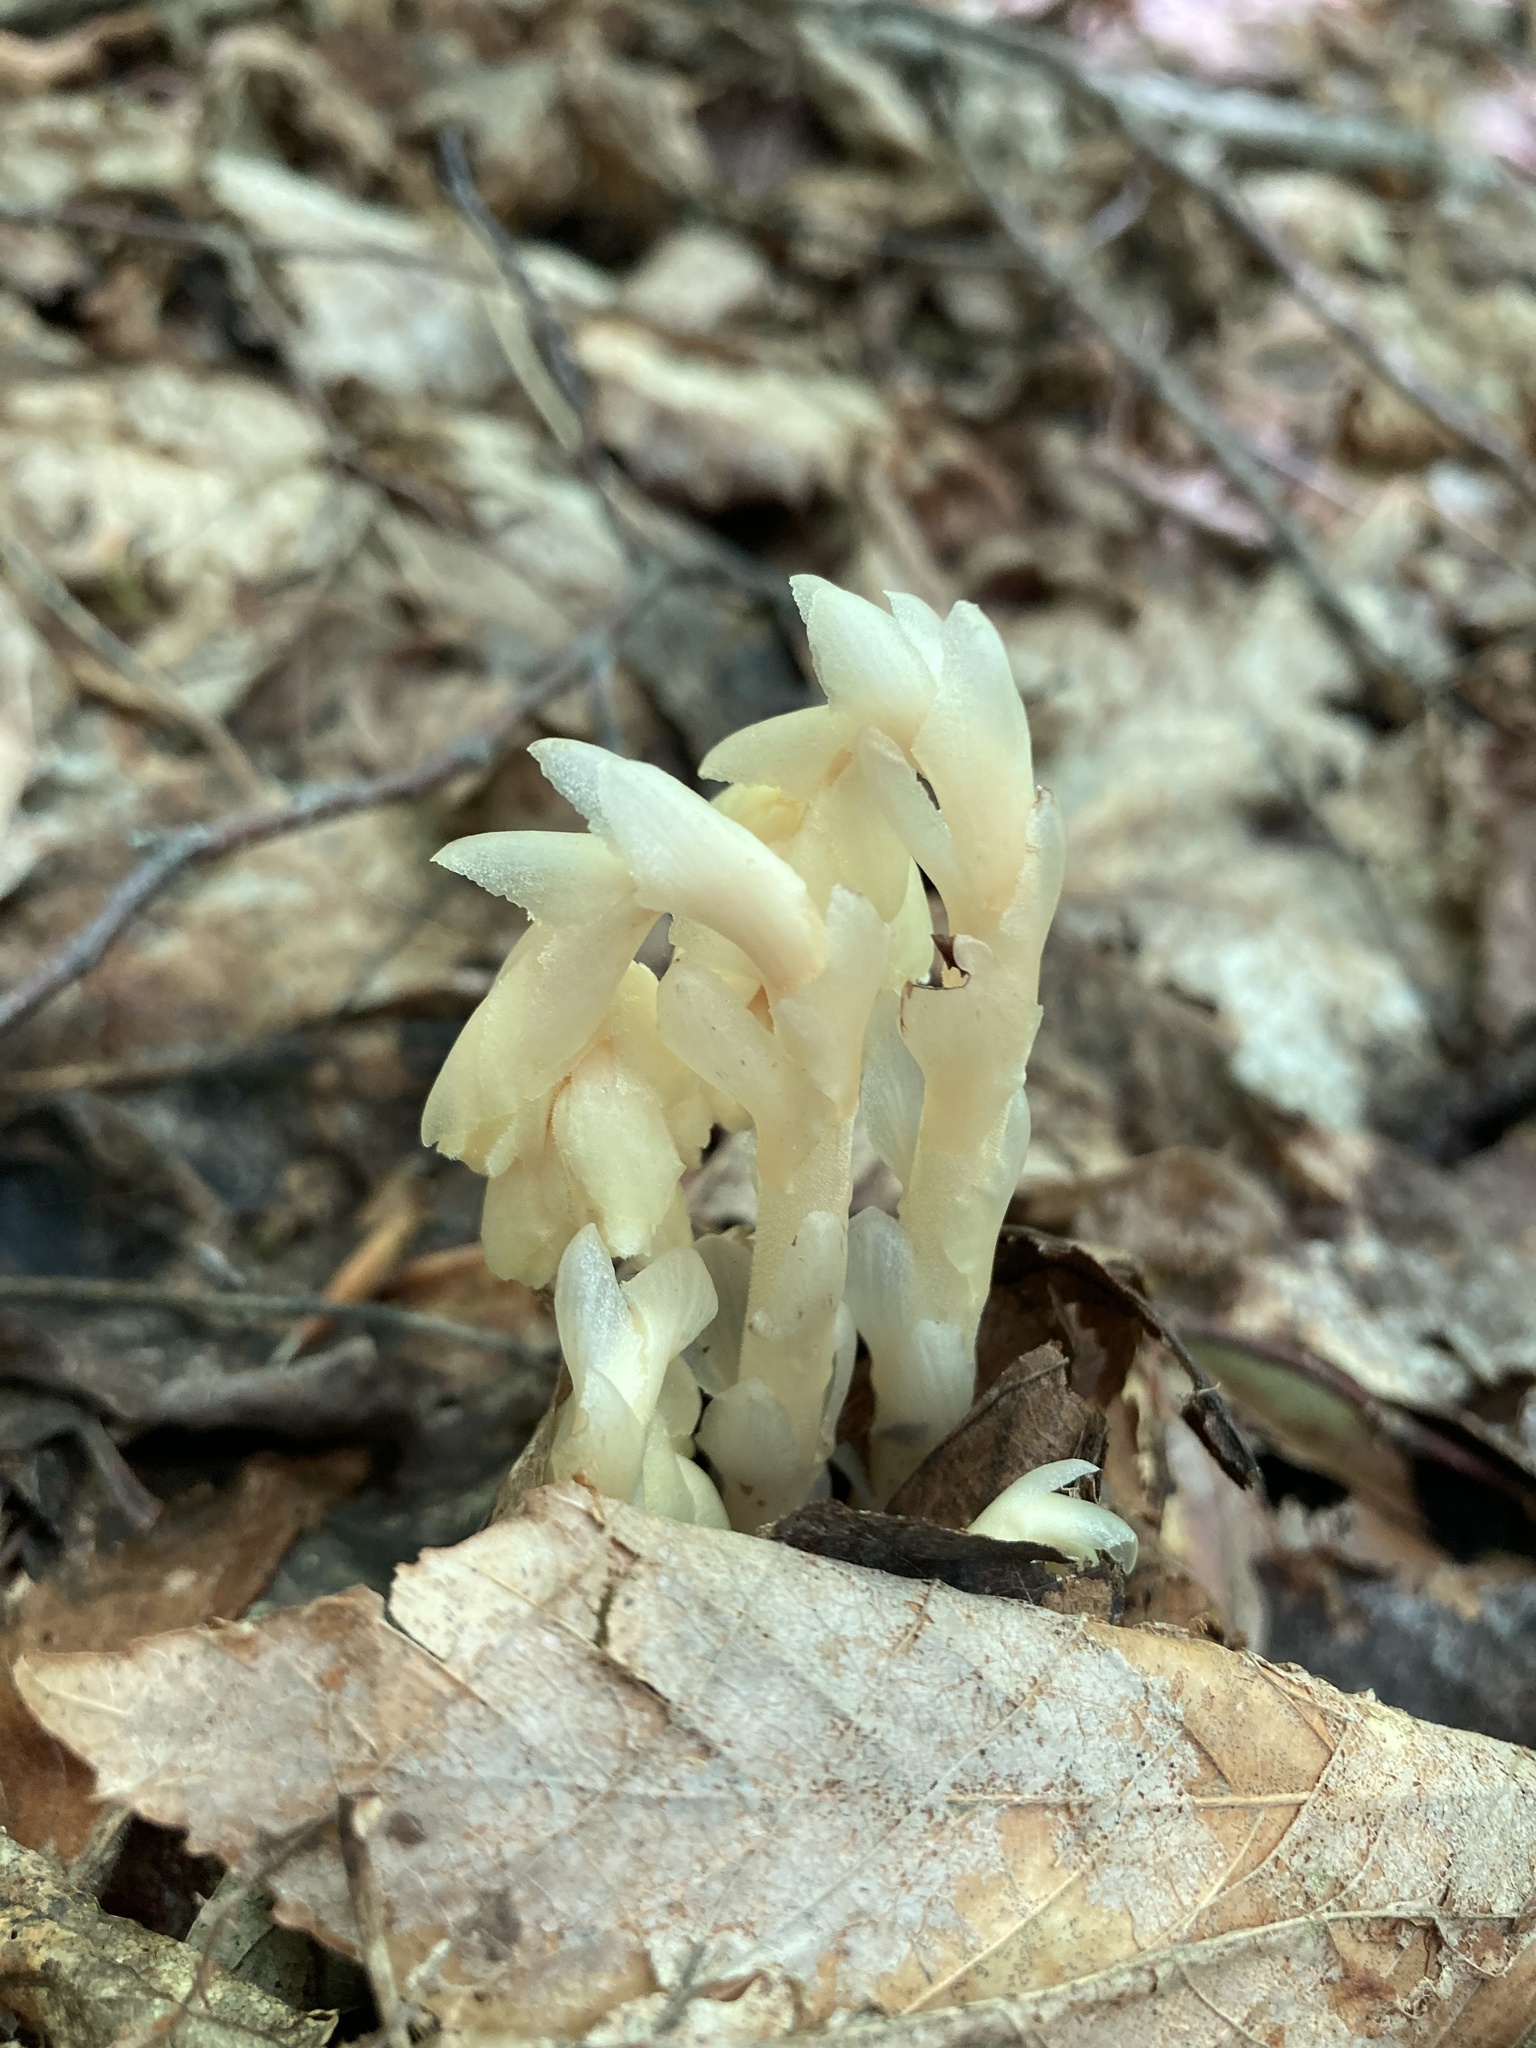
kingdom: Plantae
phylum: Tracheophyta
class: Magnoliopsida
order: Ericales
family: Ericaceae
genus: Hypopitys
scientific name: Hypopitys monotropa
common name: Yellow bird's-nest
